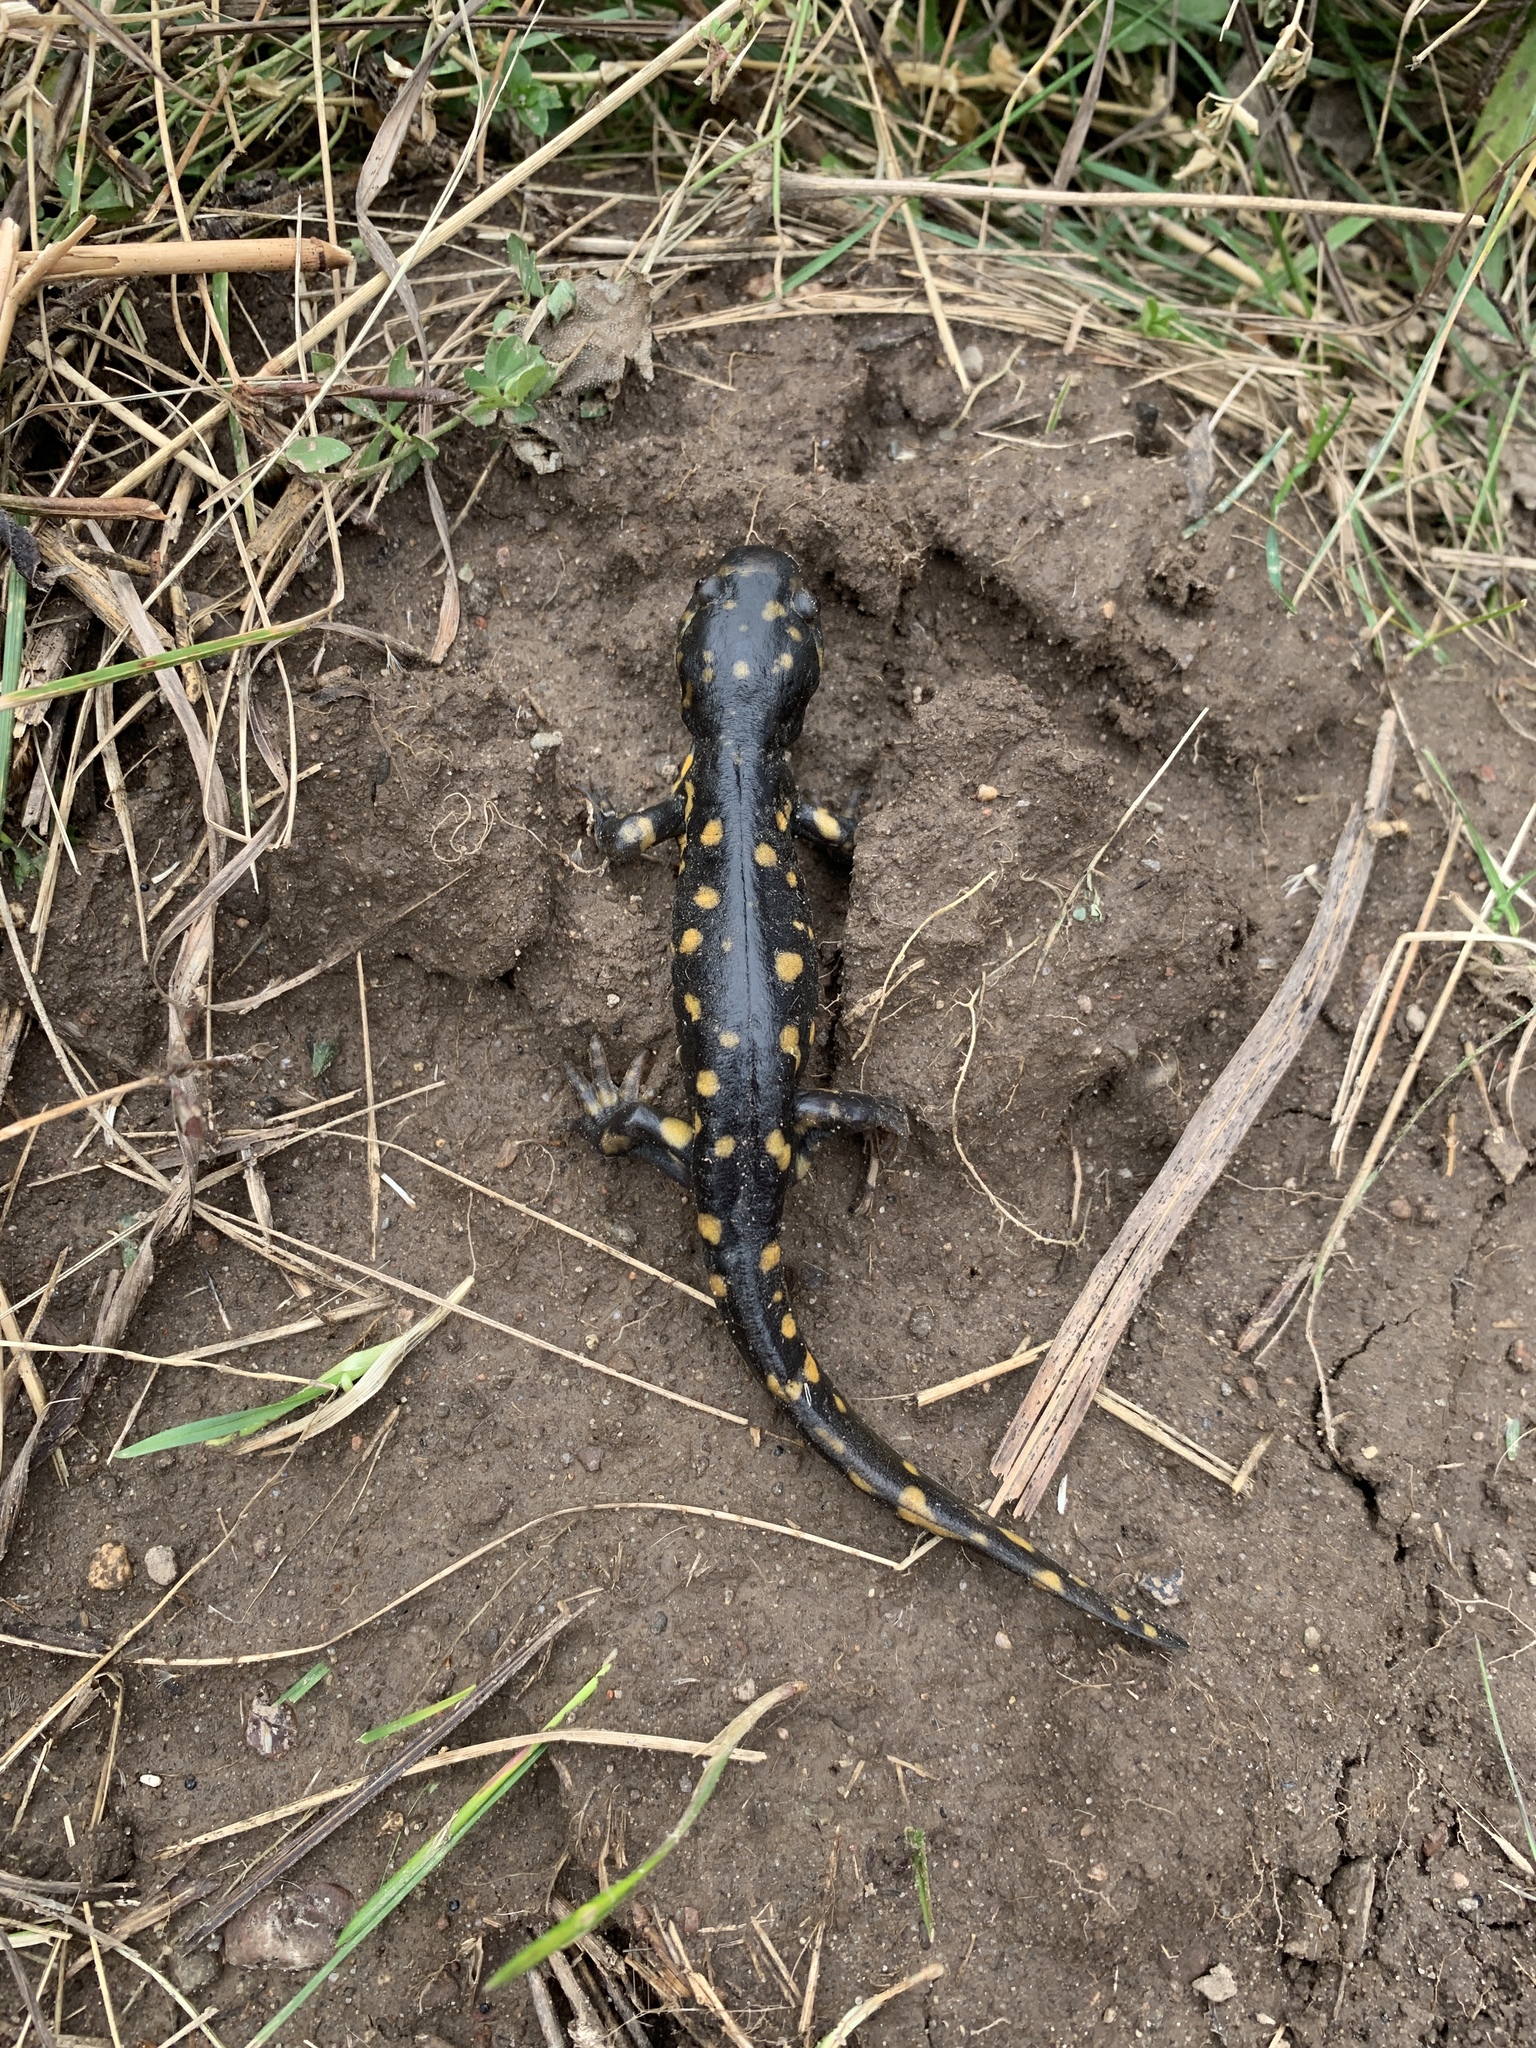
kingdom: Animalia
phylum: Chordata
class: Amphibia
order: Caudata
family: Ambystomatidae
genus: Ambystoma
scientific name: Ambystoma tigrinum
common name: Tiger salamander
